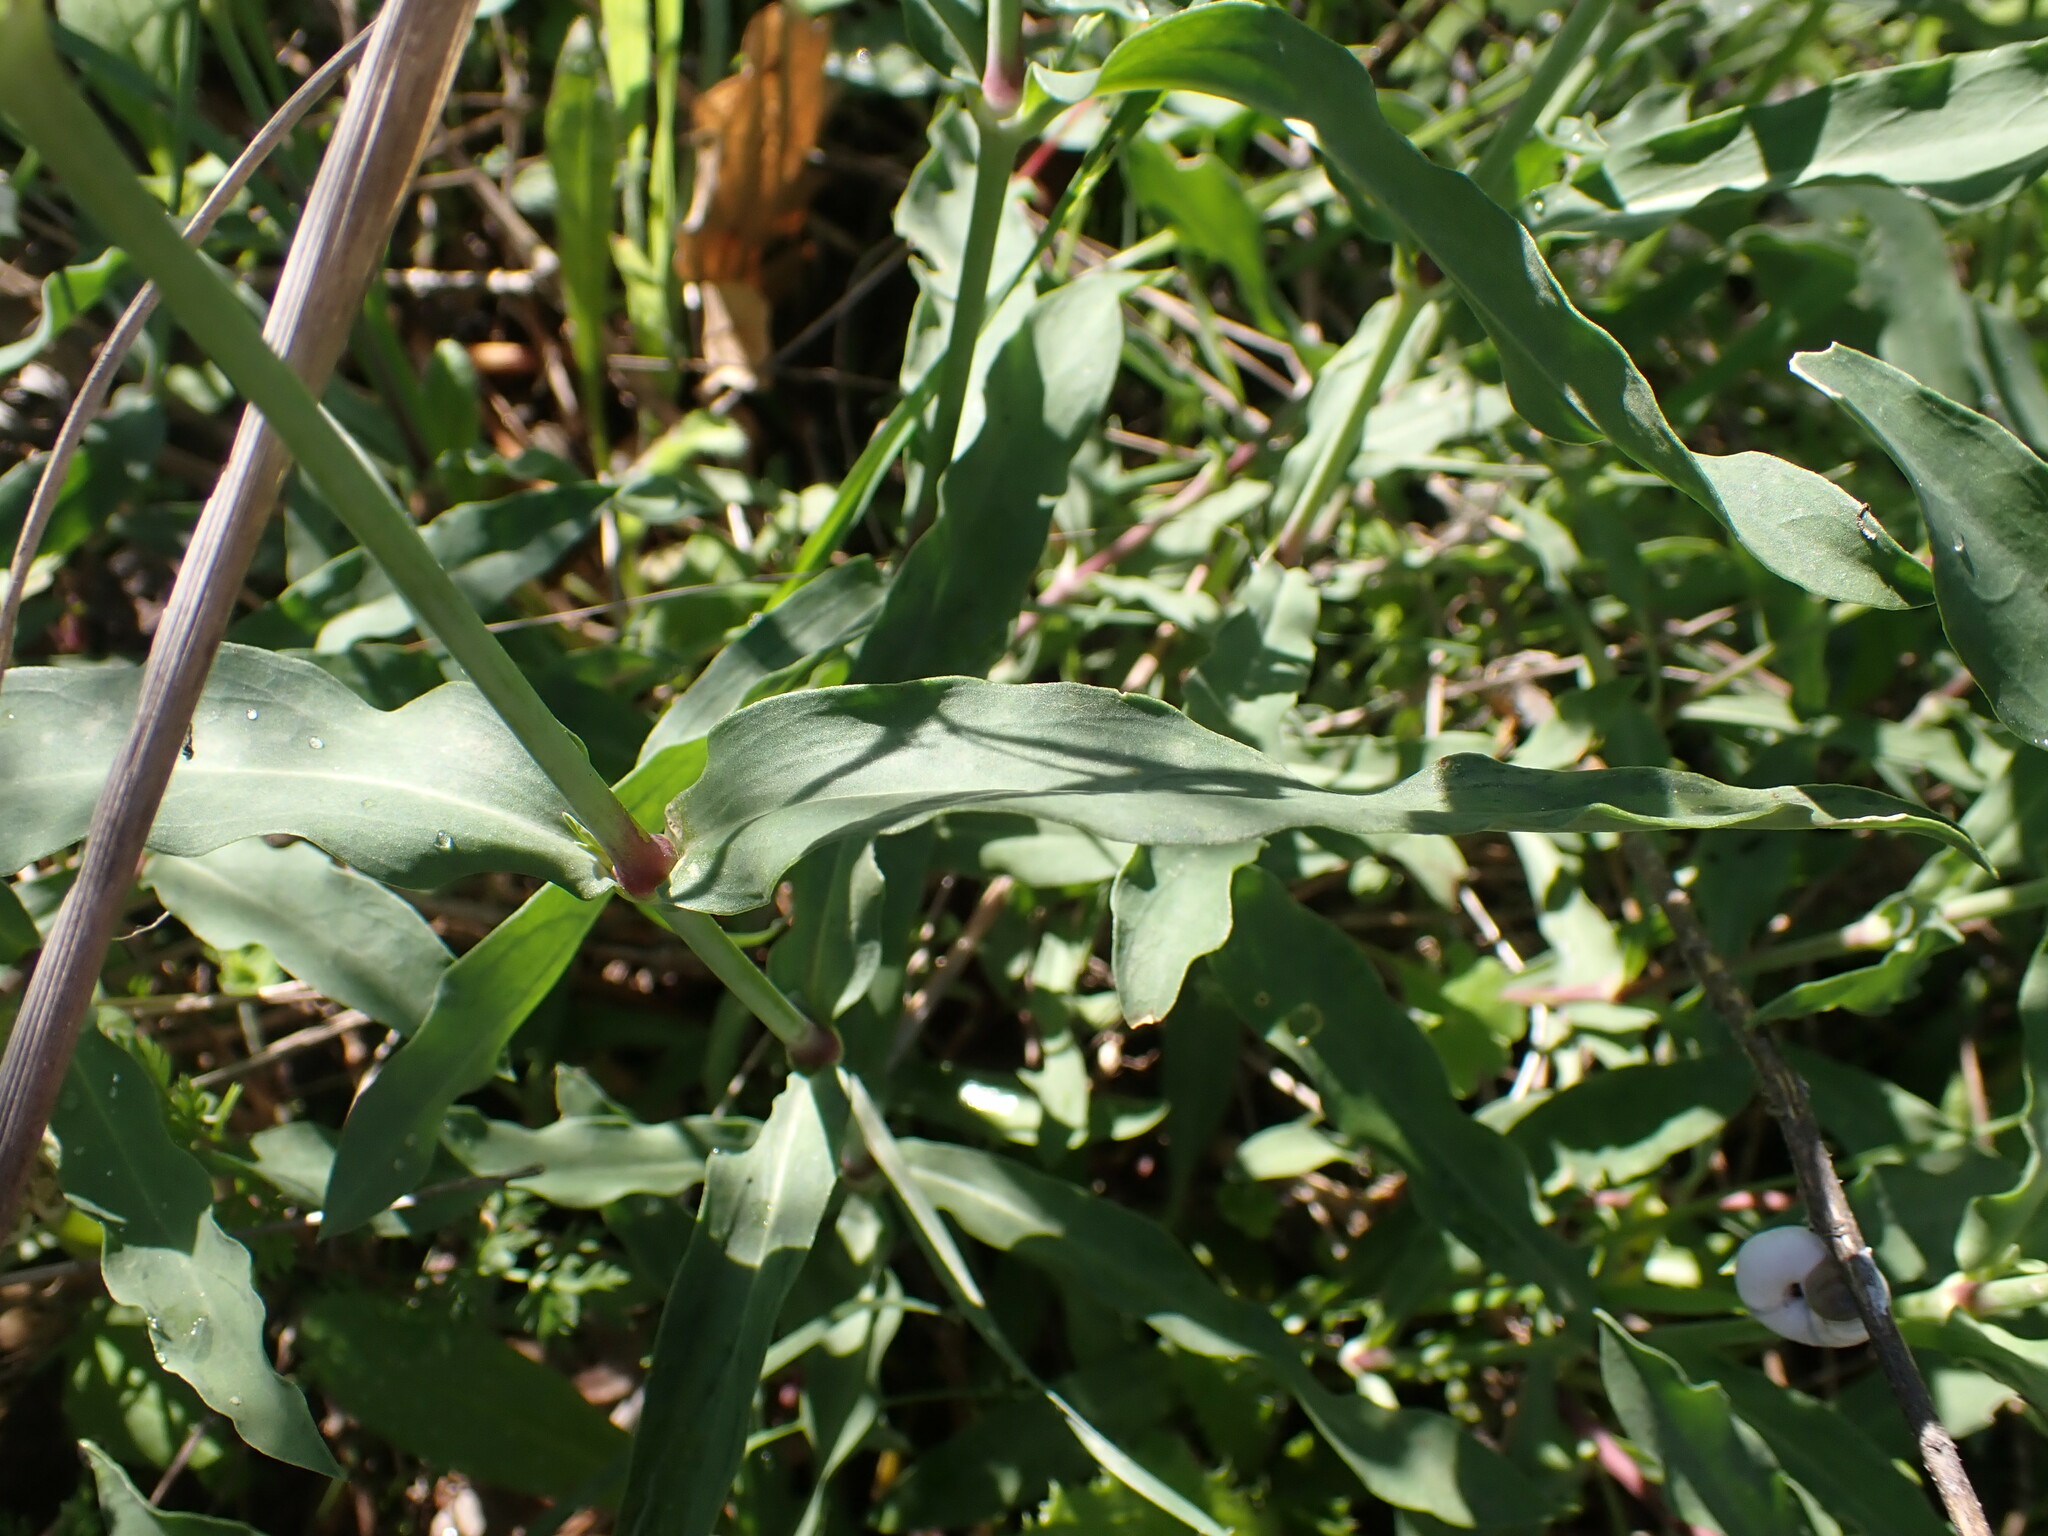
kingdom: Plantae
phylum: Tracheophyta
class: Magnoliopsida
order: Caryophyllales
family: Caryophyllaceae
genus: Silene
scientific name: Silene vulgaris
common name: Bladder campion
